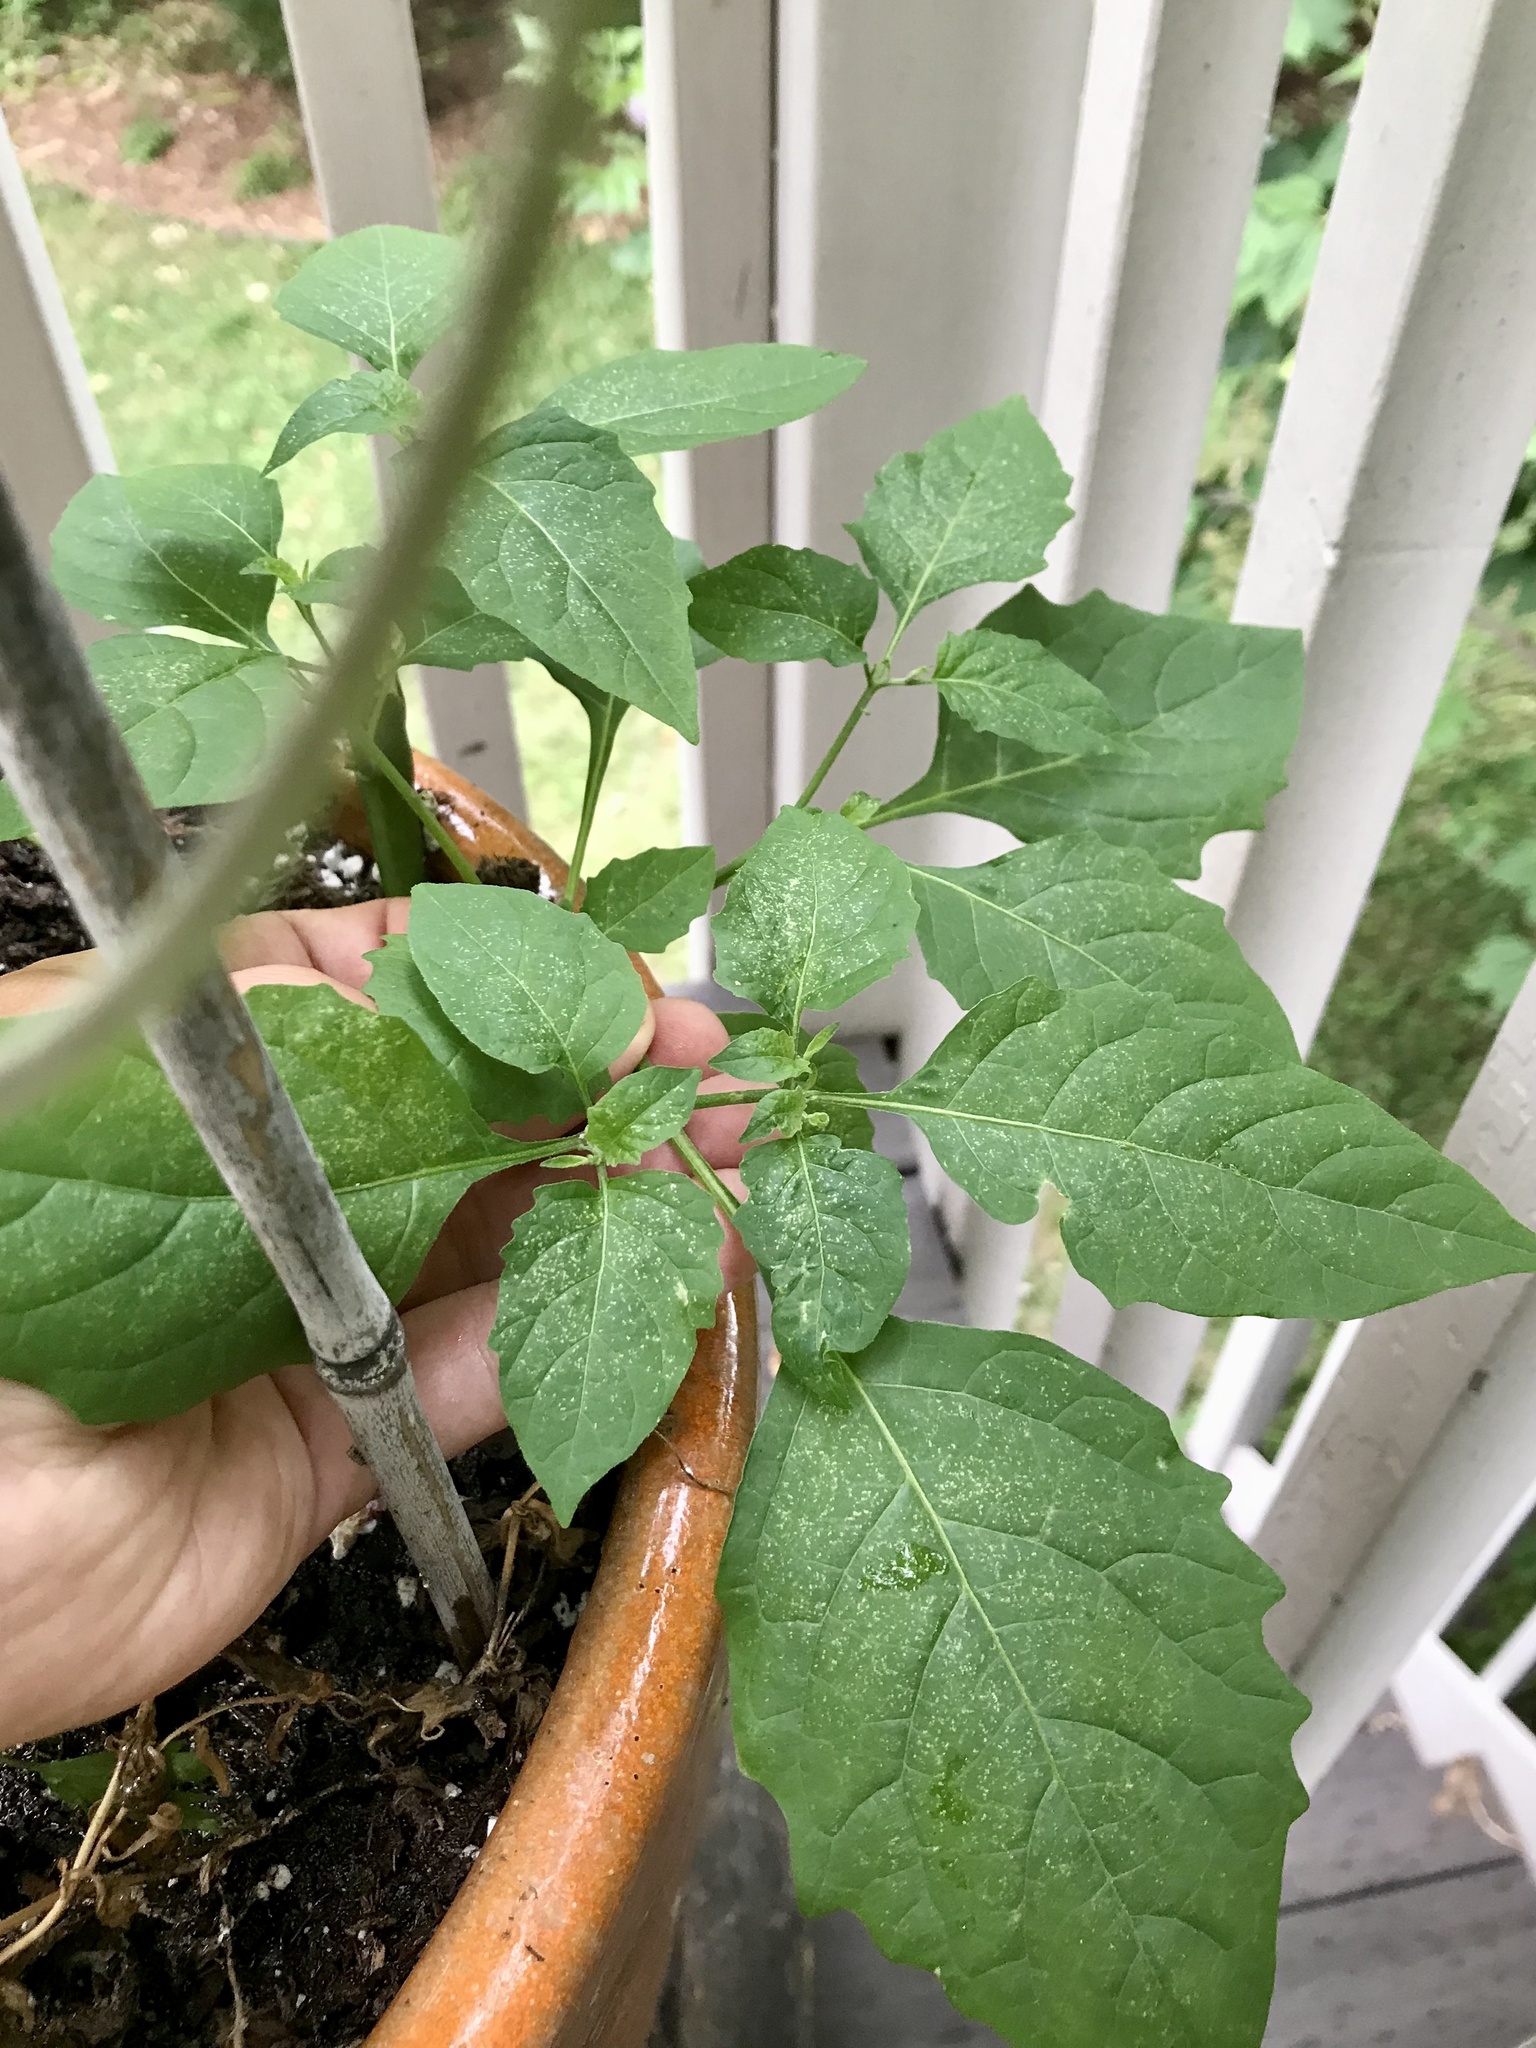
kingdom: Plantae
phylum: Tracheophyta
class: Magnoliopsida
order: Solanales
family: Solanaceae
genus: Solanum
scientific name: Solanum emulans
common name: Eastern black nightshade
